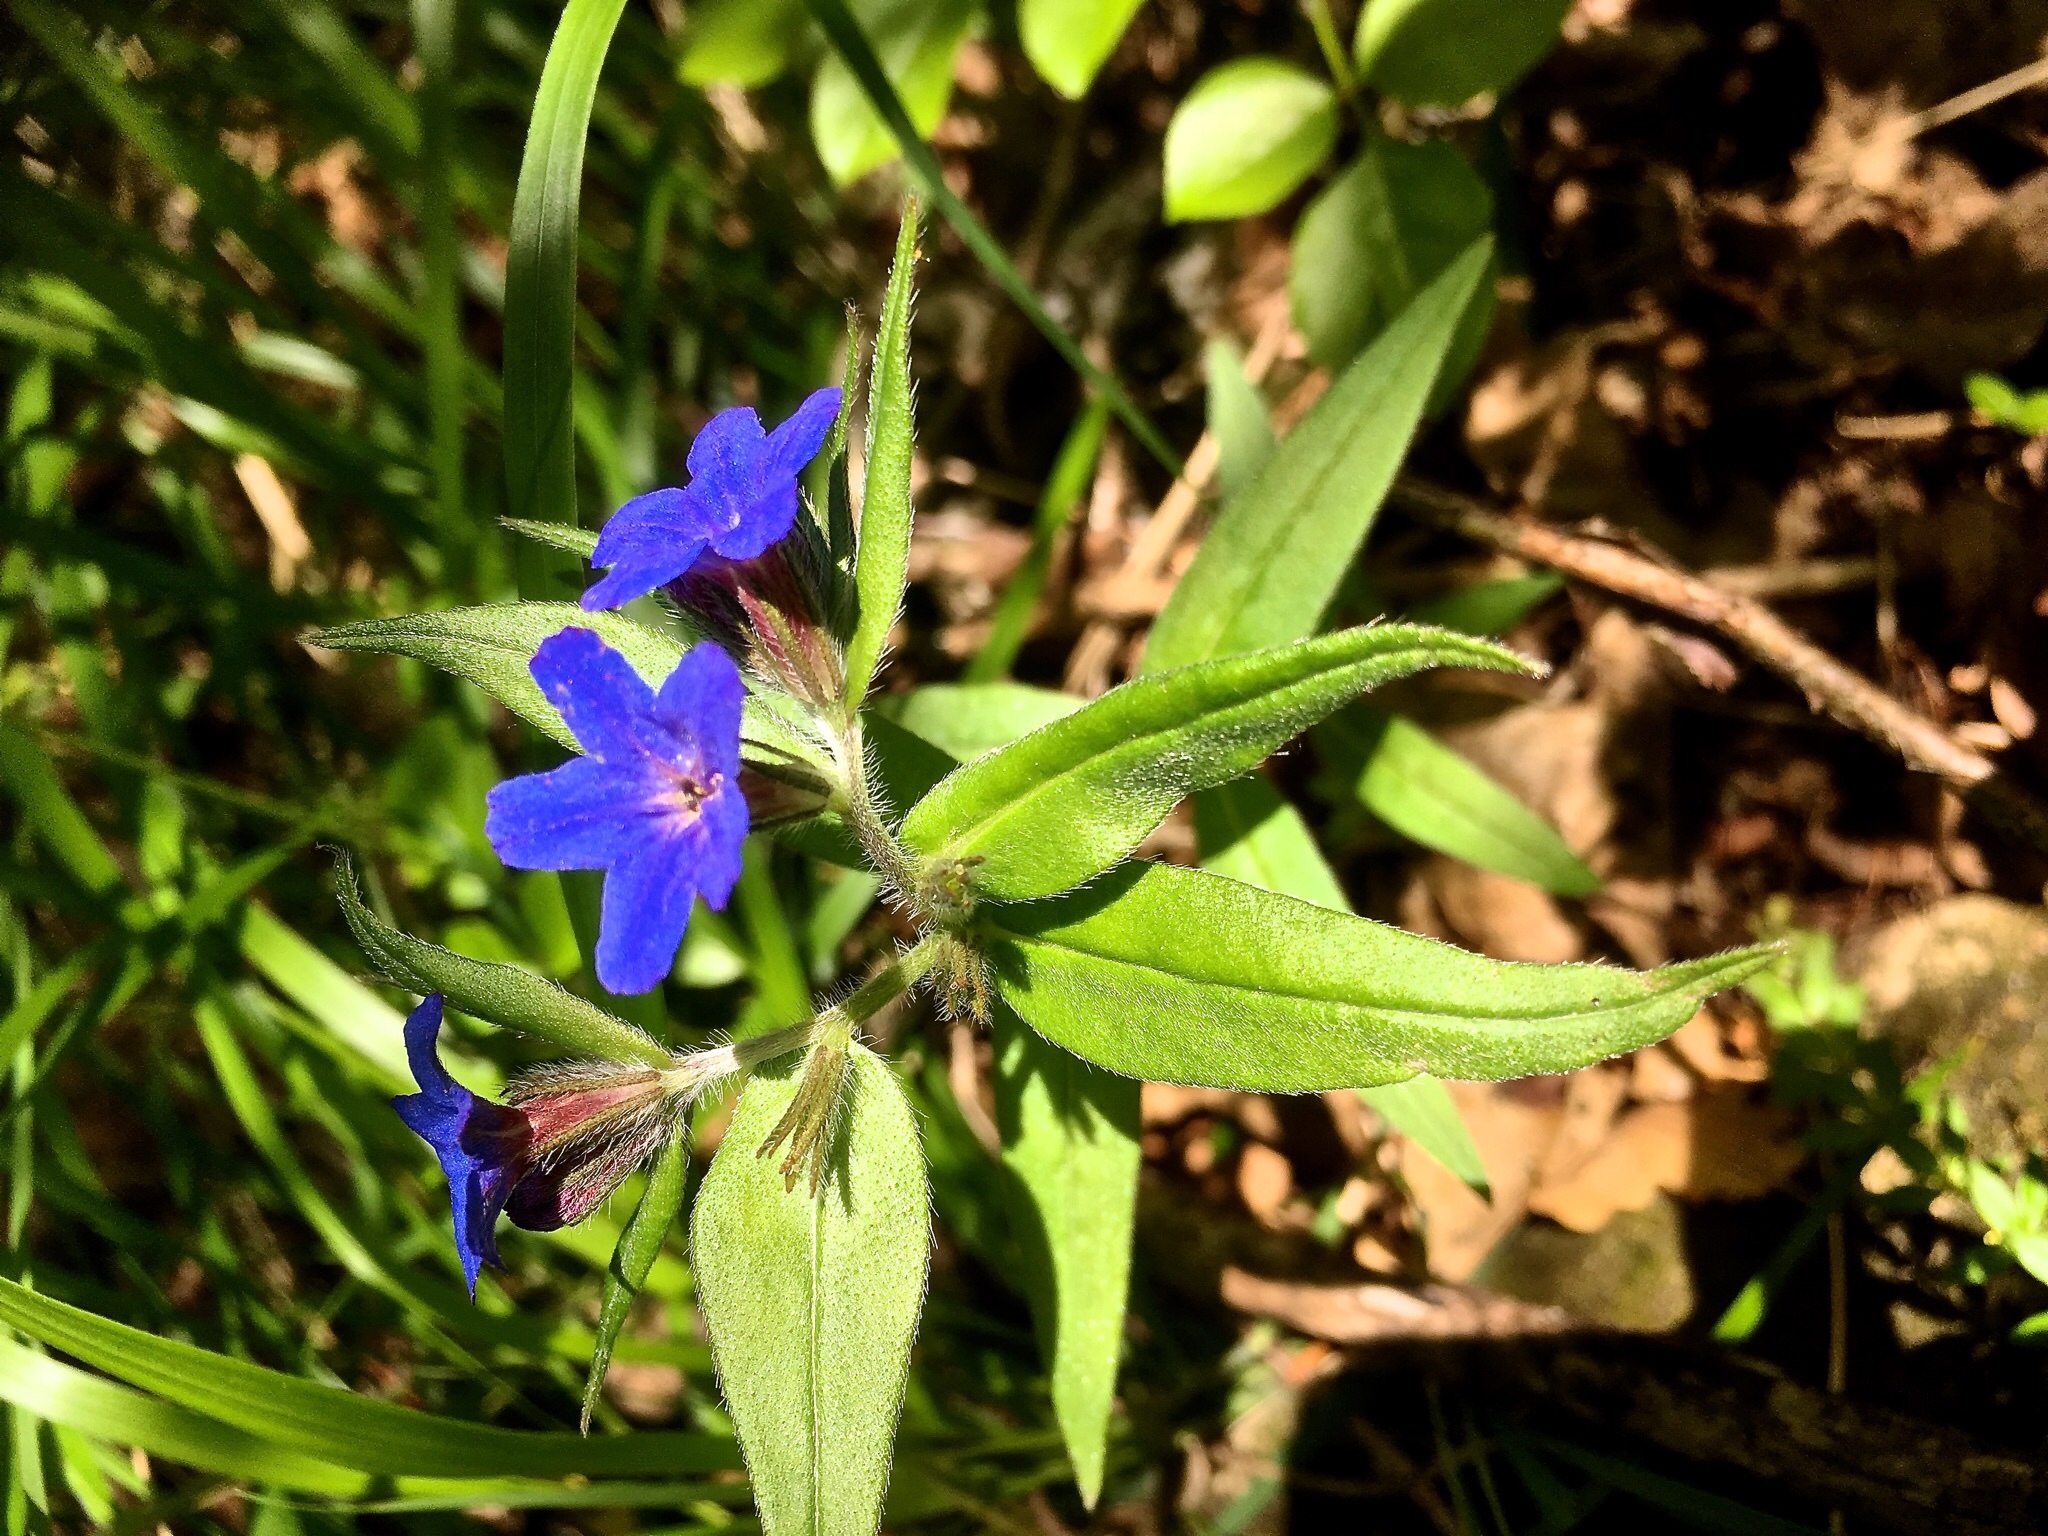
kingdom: Plantae
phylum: Tracheophyta
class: Magnoliopsida
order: Boraginales
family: Boraginaceae
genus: Aegonychon
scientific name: Aegonychon purpurocaeruleum
